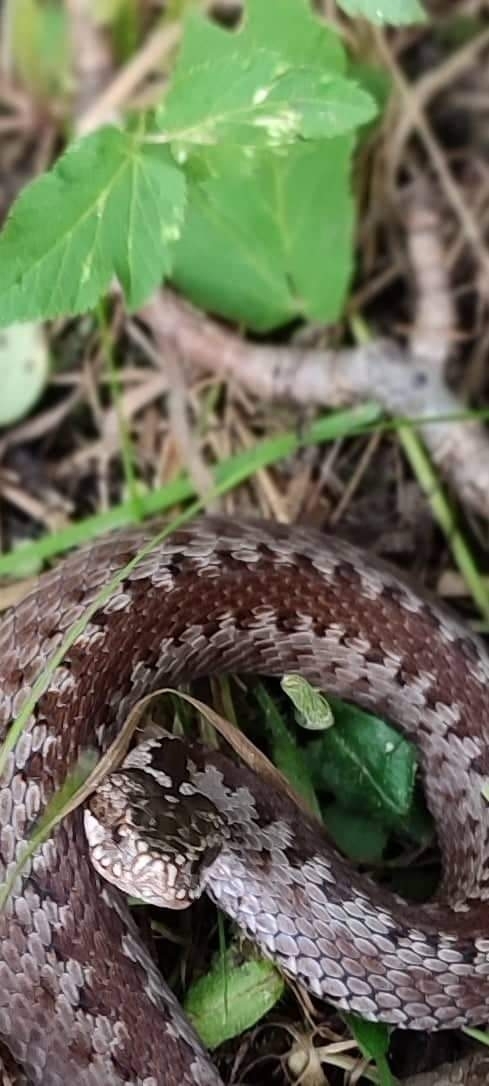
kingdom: Animalia
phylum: Chordata
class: Squamata
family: Viperidae
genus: Vipera
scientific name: Vipera berus
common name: Adder
